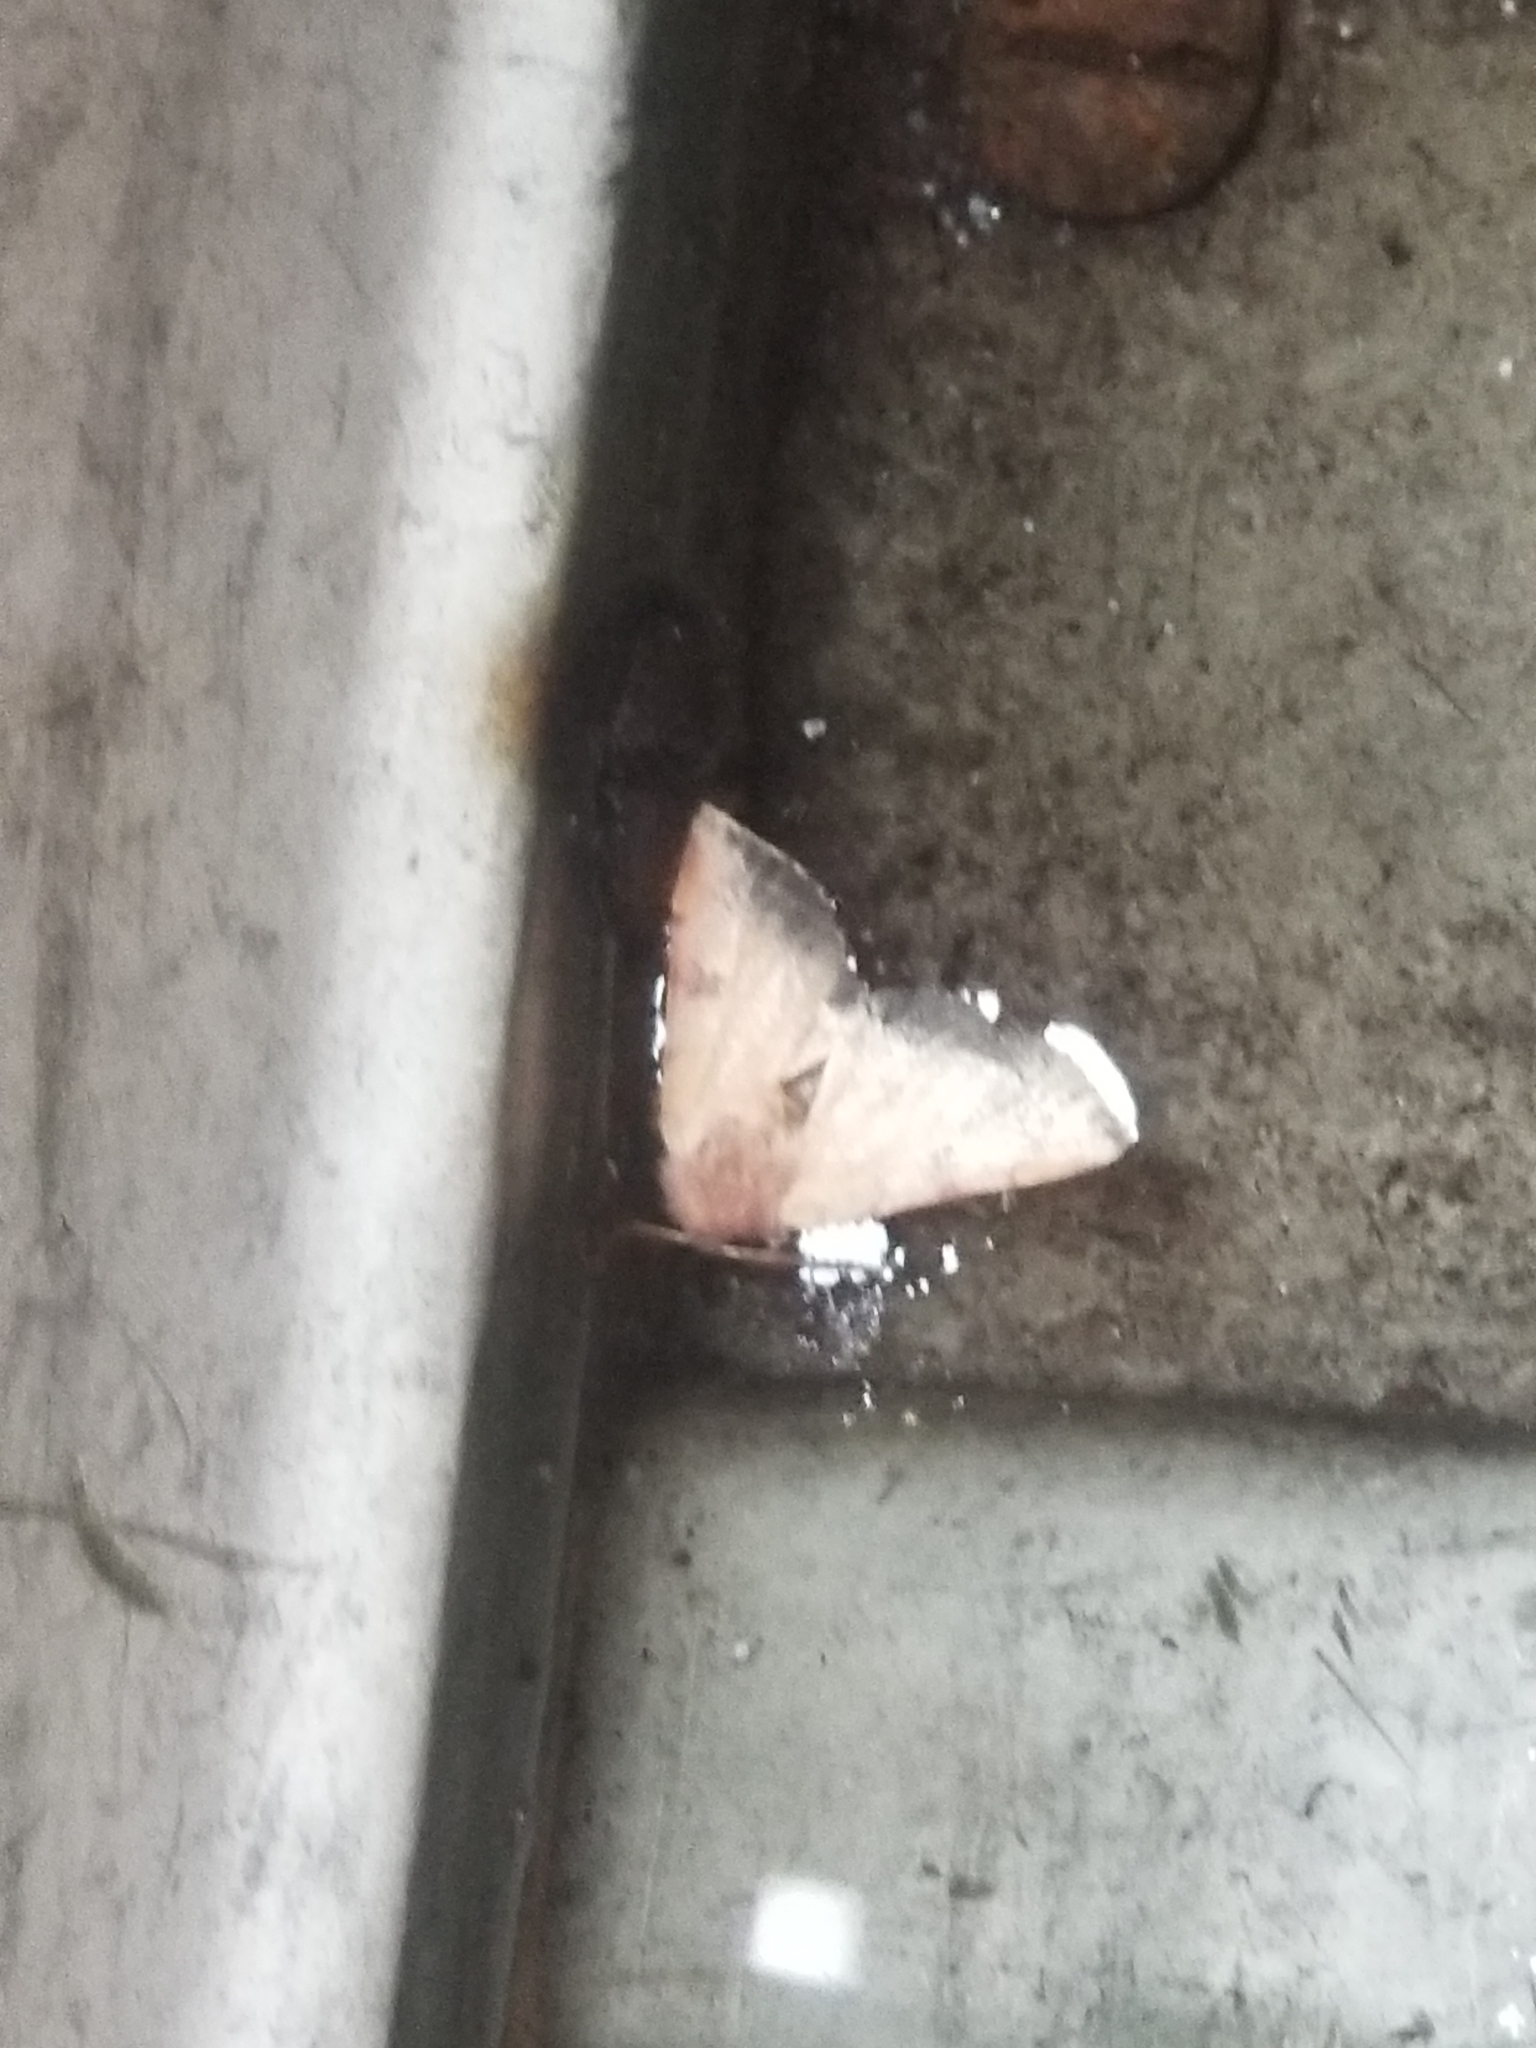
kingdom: Animalia
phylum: Arthropoda
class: Insecta
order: Lepidoptera
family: Noctuidae
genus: Choephora
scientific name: Choephora fungorum
